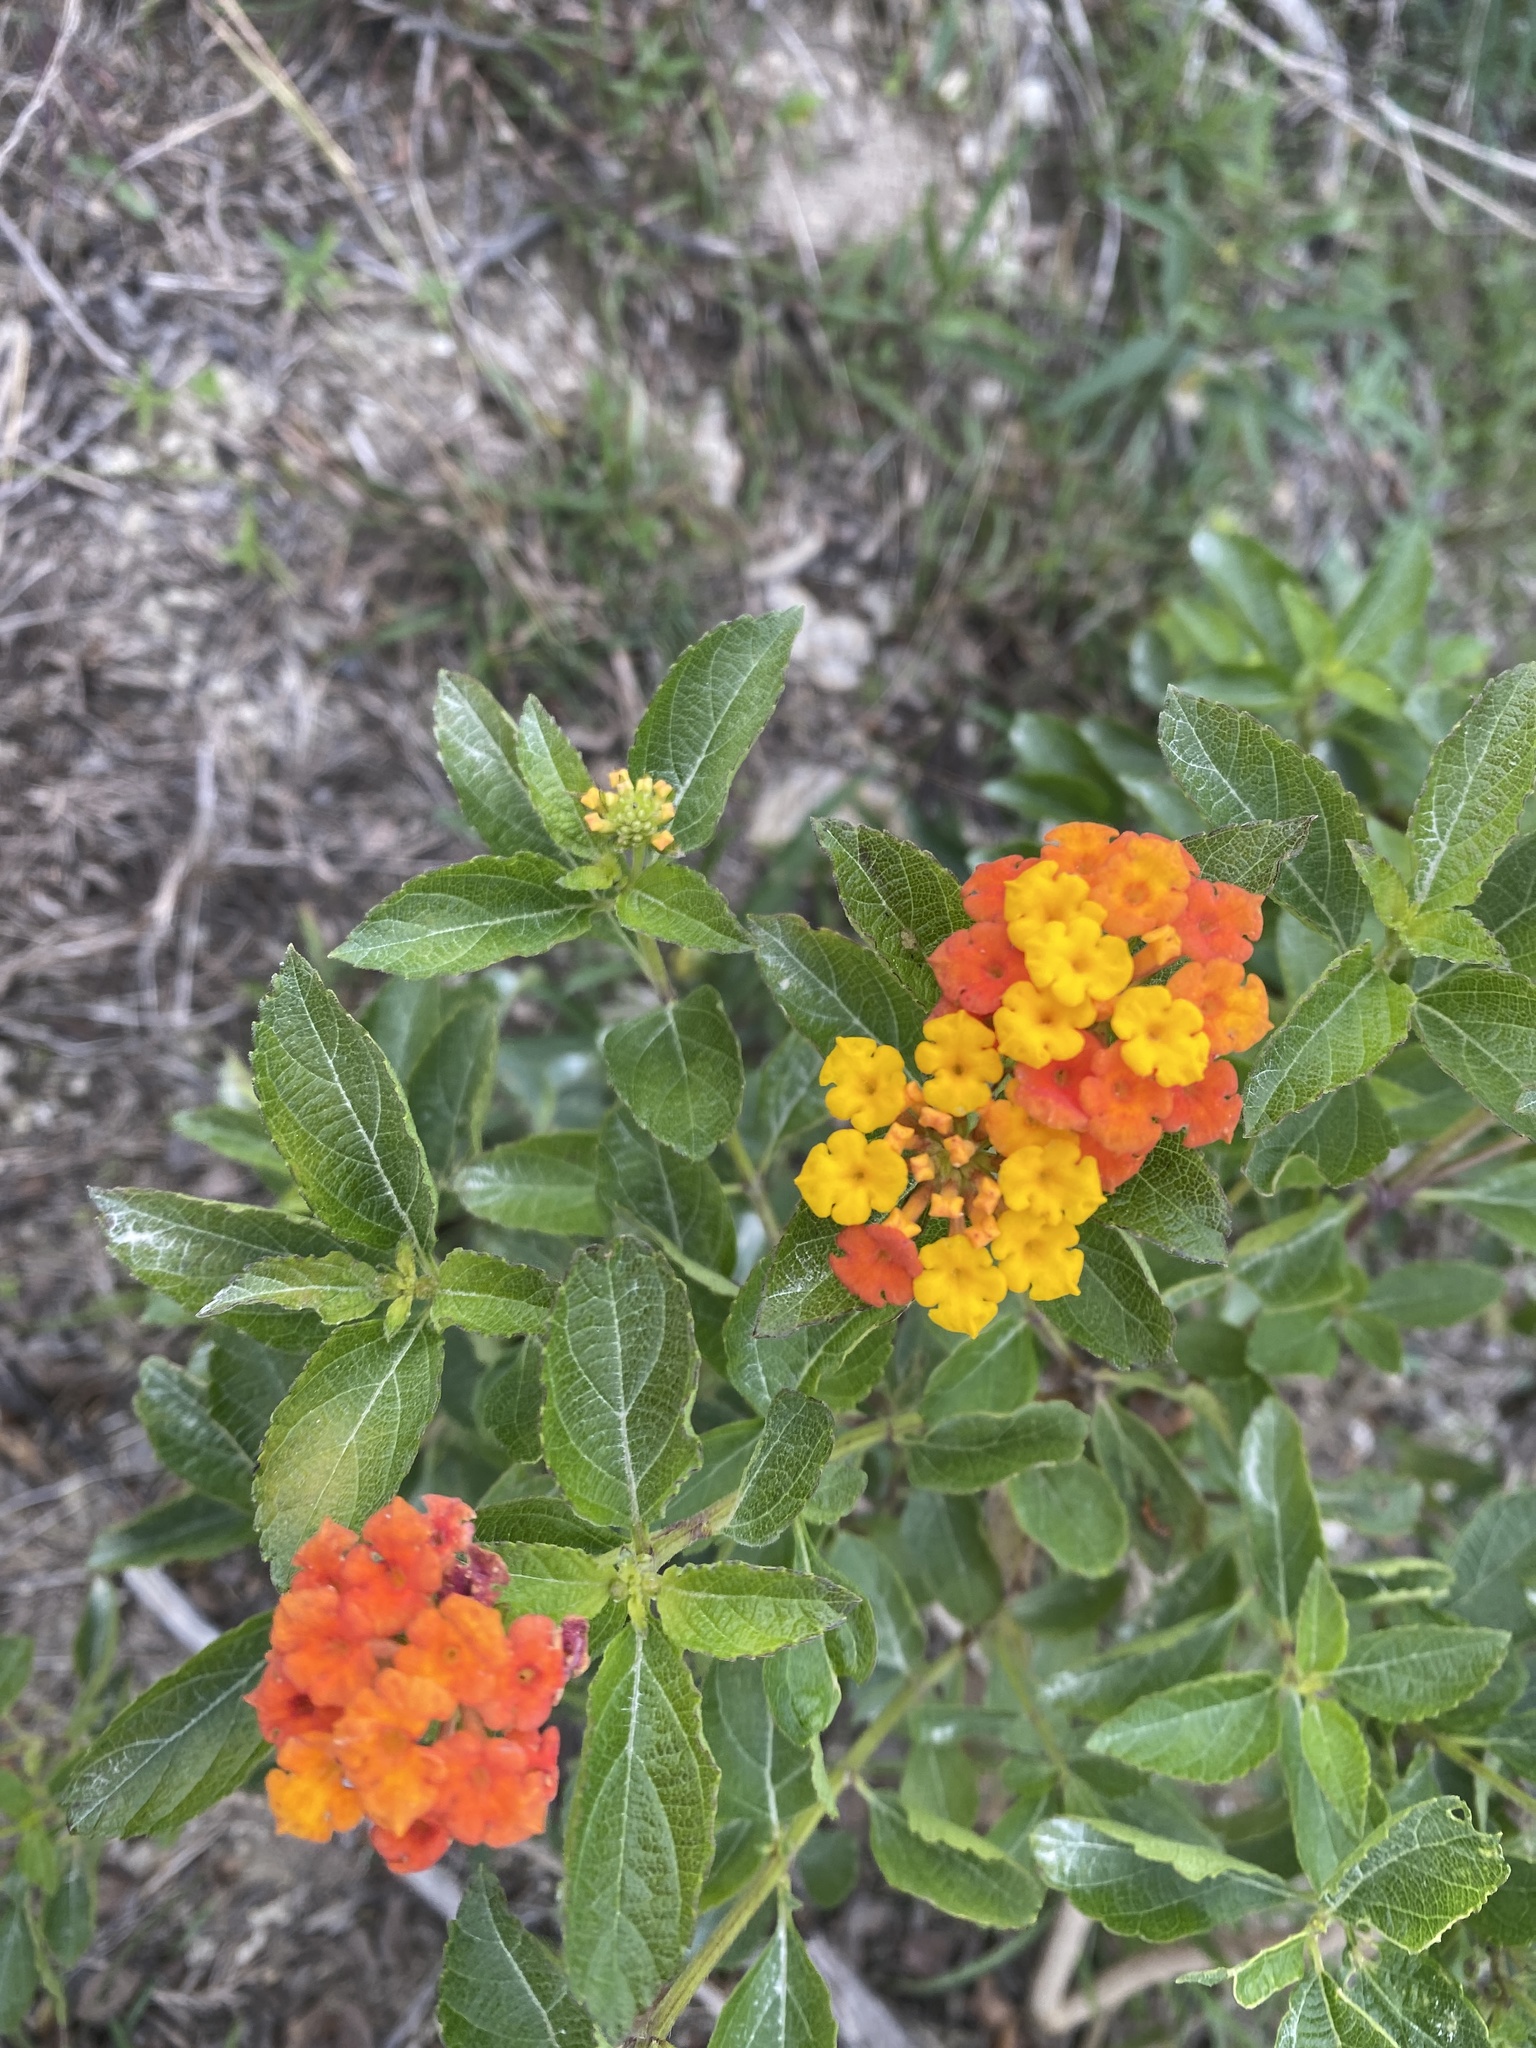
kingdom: Plantae
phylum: Tracheophyta
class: Magnoliopsida
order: Lamiales
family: Verbenaceae
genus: Lantana
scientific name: Lantana urticoides
